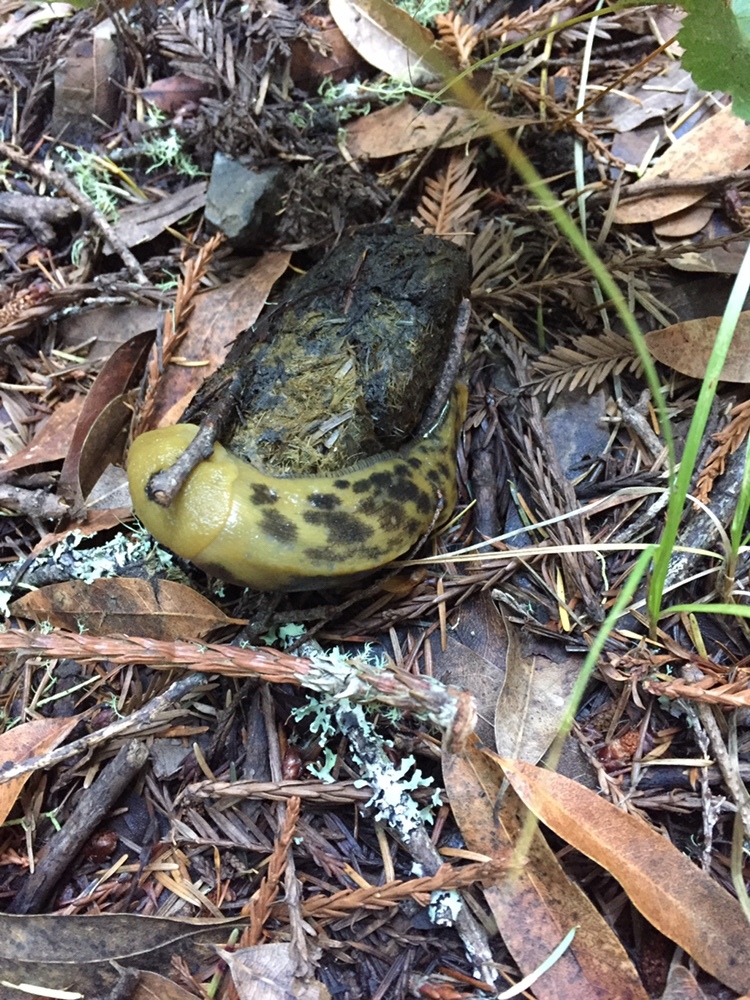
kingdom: Animalia
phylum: Mollusca
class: Gastropoda
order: Stylommatophora
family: Ariolimacidae
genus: Ariolimax
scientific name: Ariolimax buttoni
